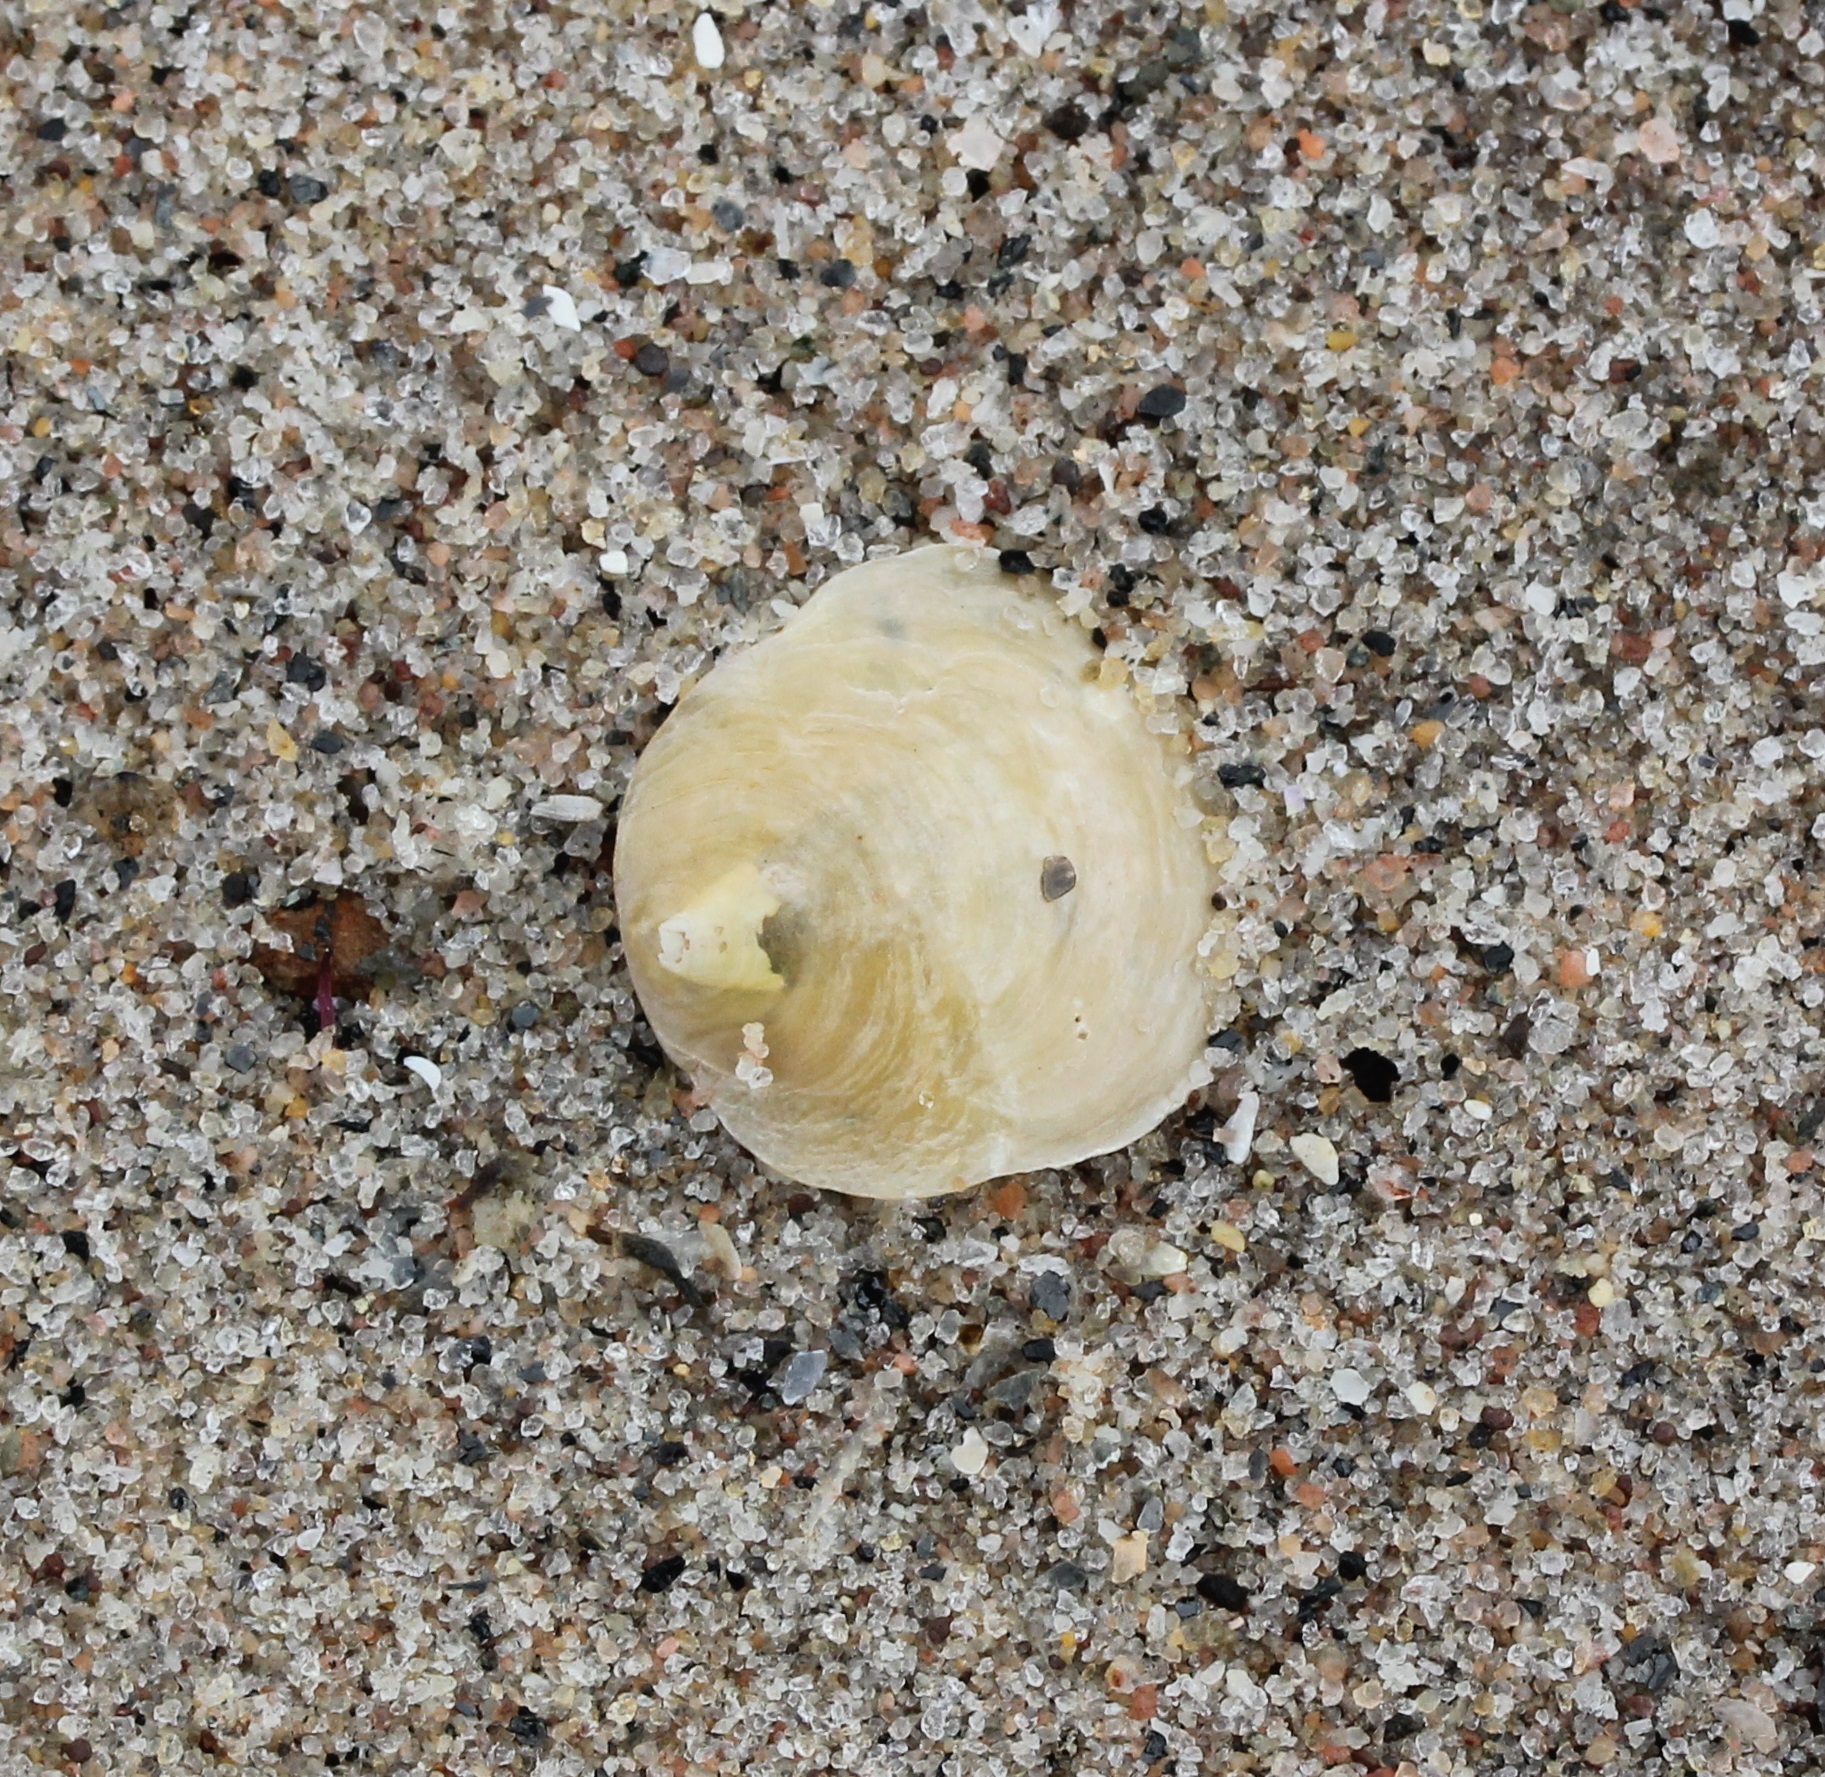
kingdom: Animalia
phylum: Mollusca
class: Bivalvia
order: Pectinida
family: Anomiidae
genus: Anomia
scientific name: Anomia simplex
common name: Common jingle shell
